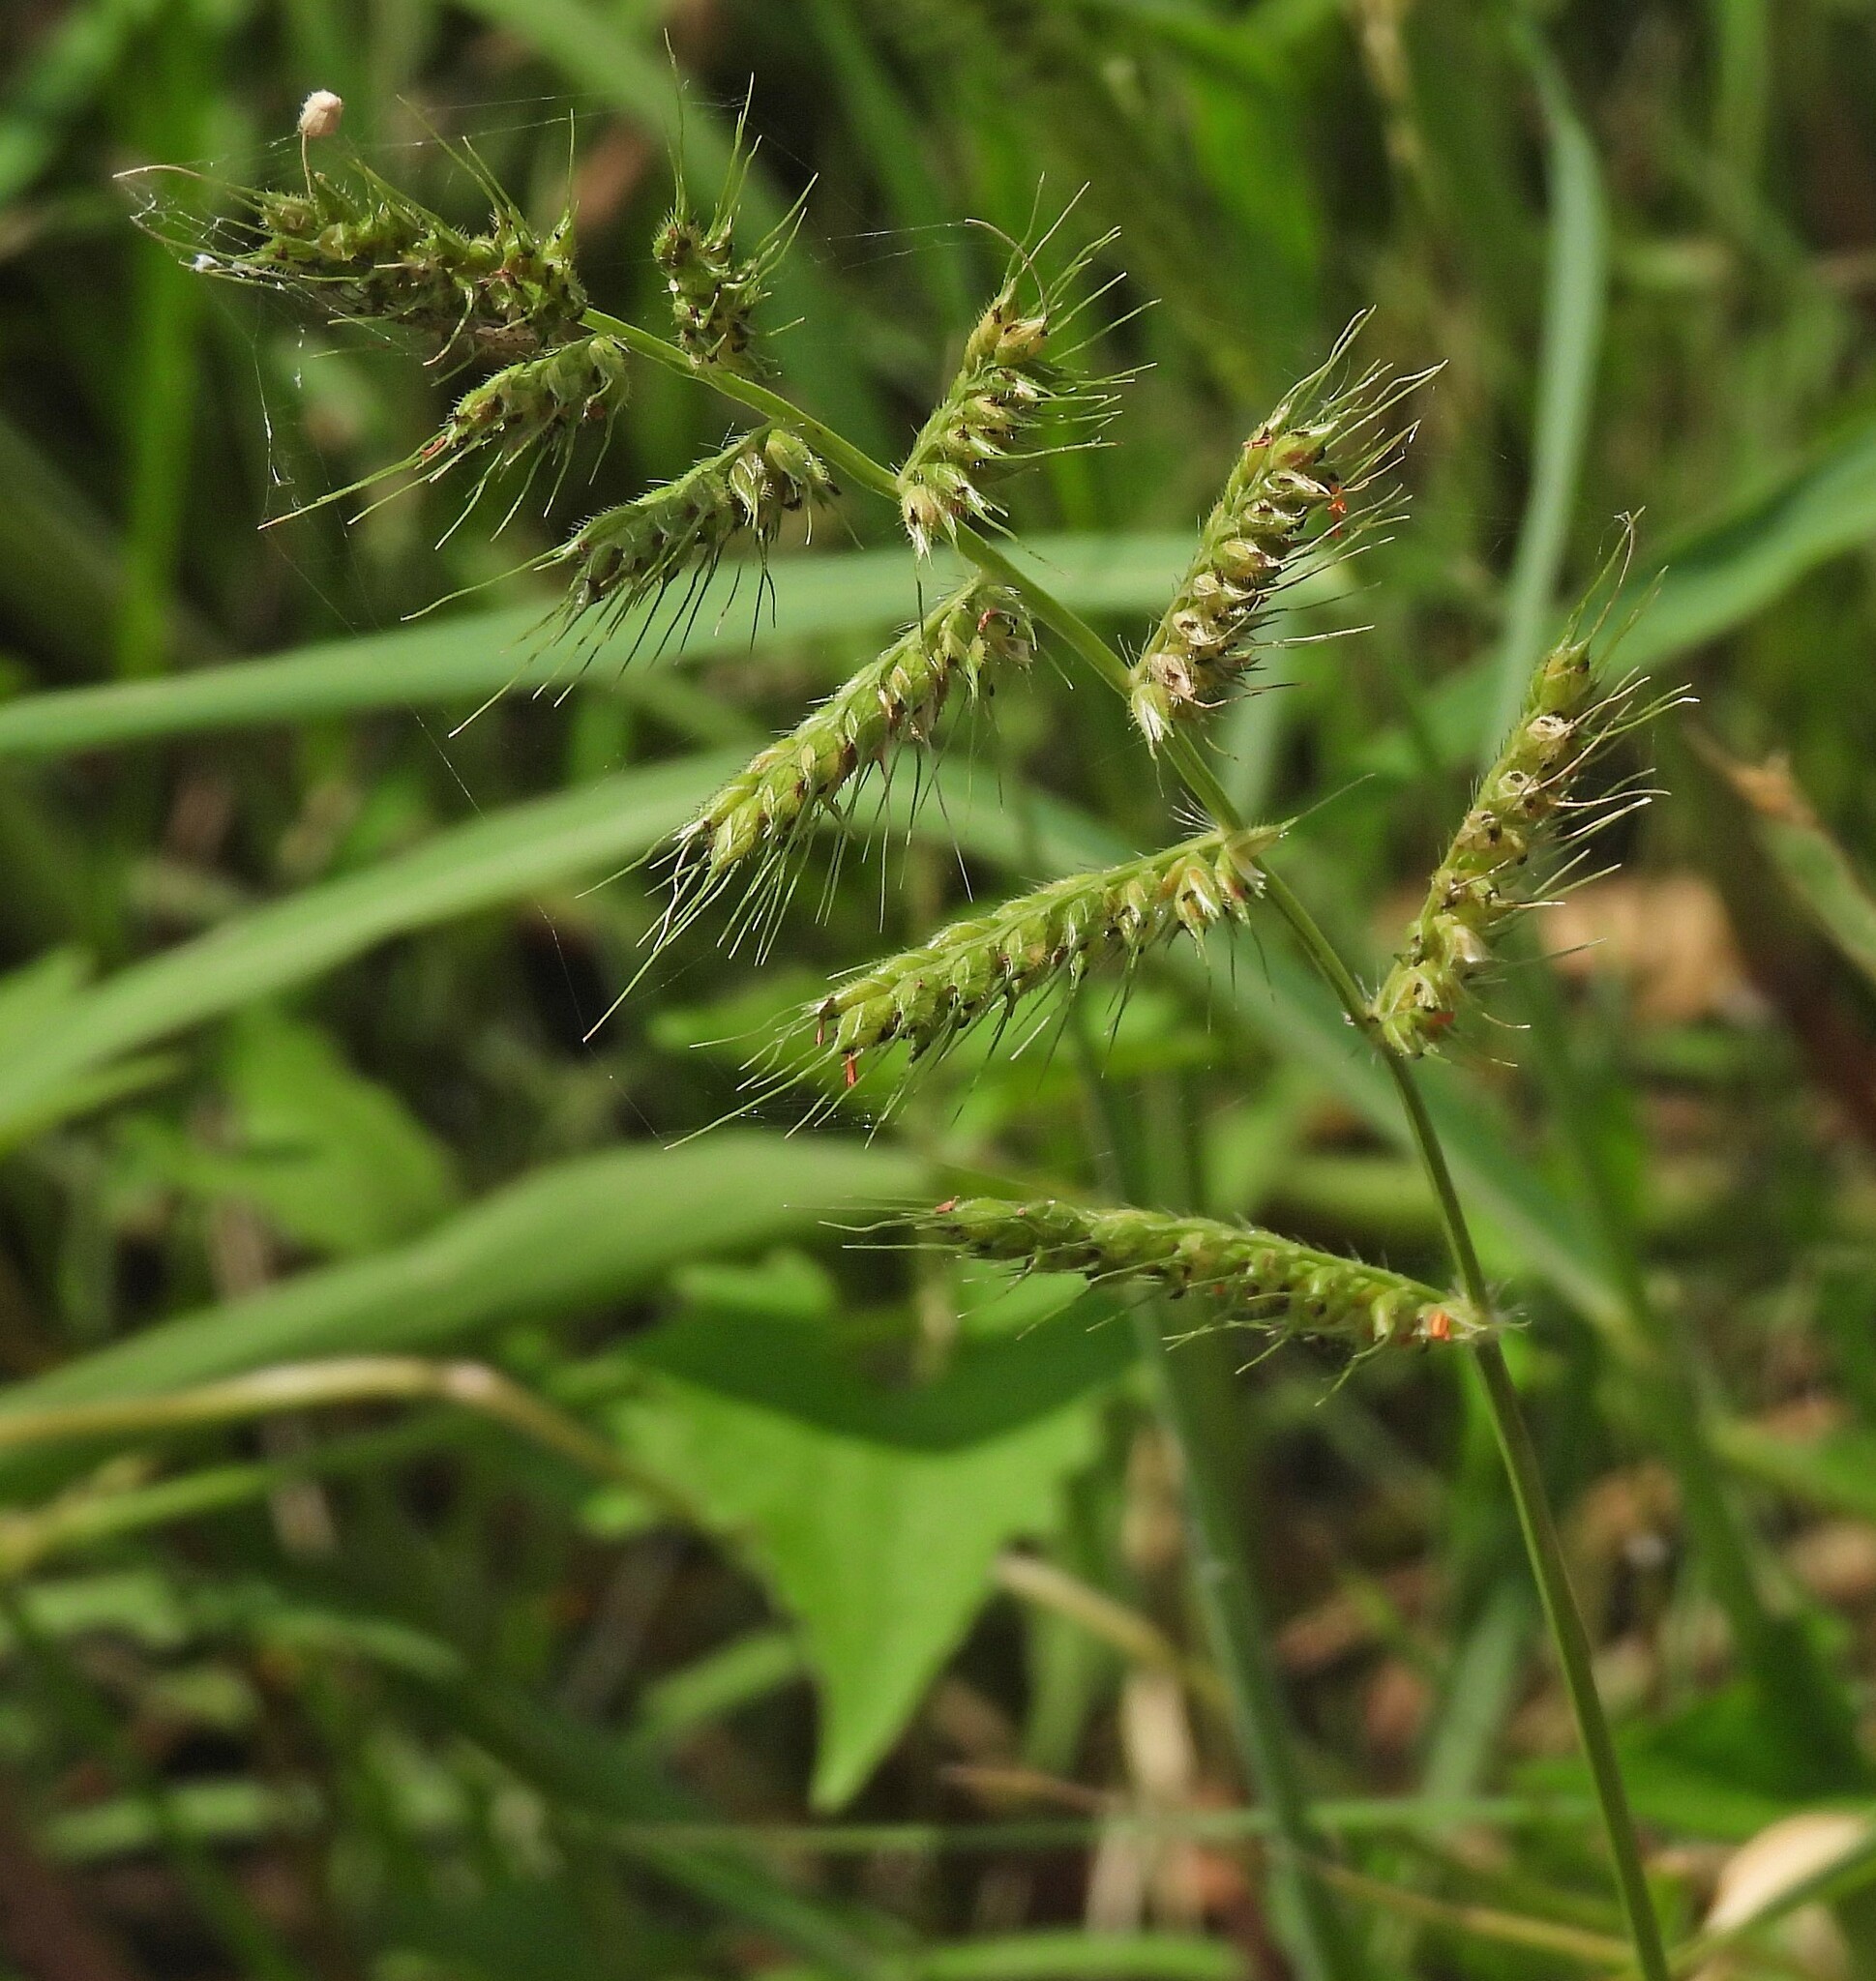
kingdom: Plantae
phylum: Tracheophyta
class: Liliopsida
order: Poales
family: Poaceae
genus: Echinochloa
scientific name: Echinochloa polystachya
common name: Creeping river grass
